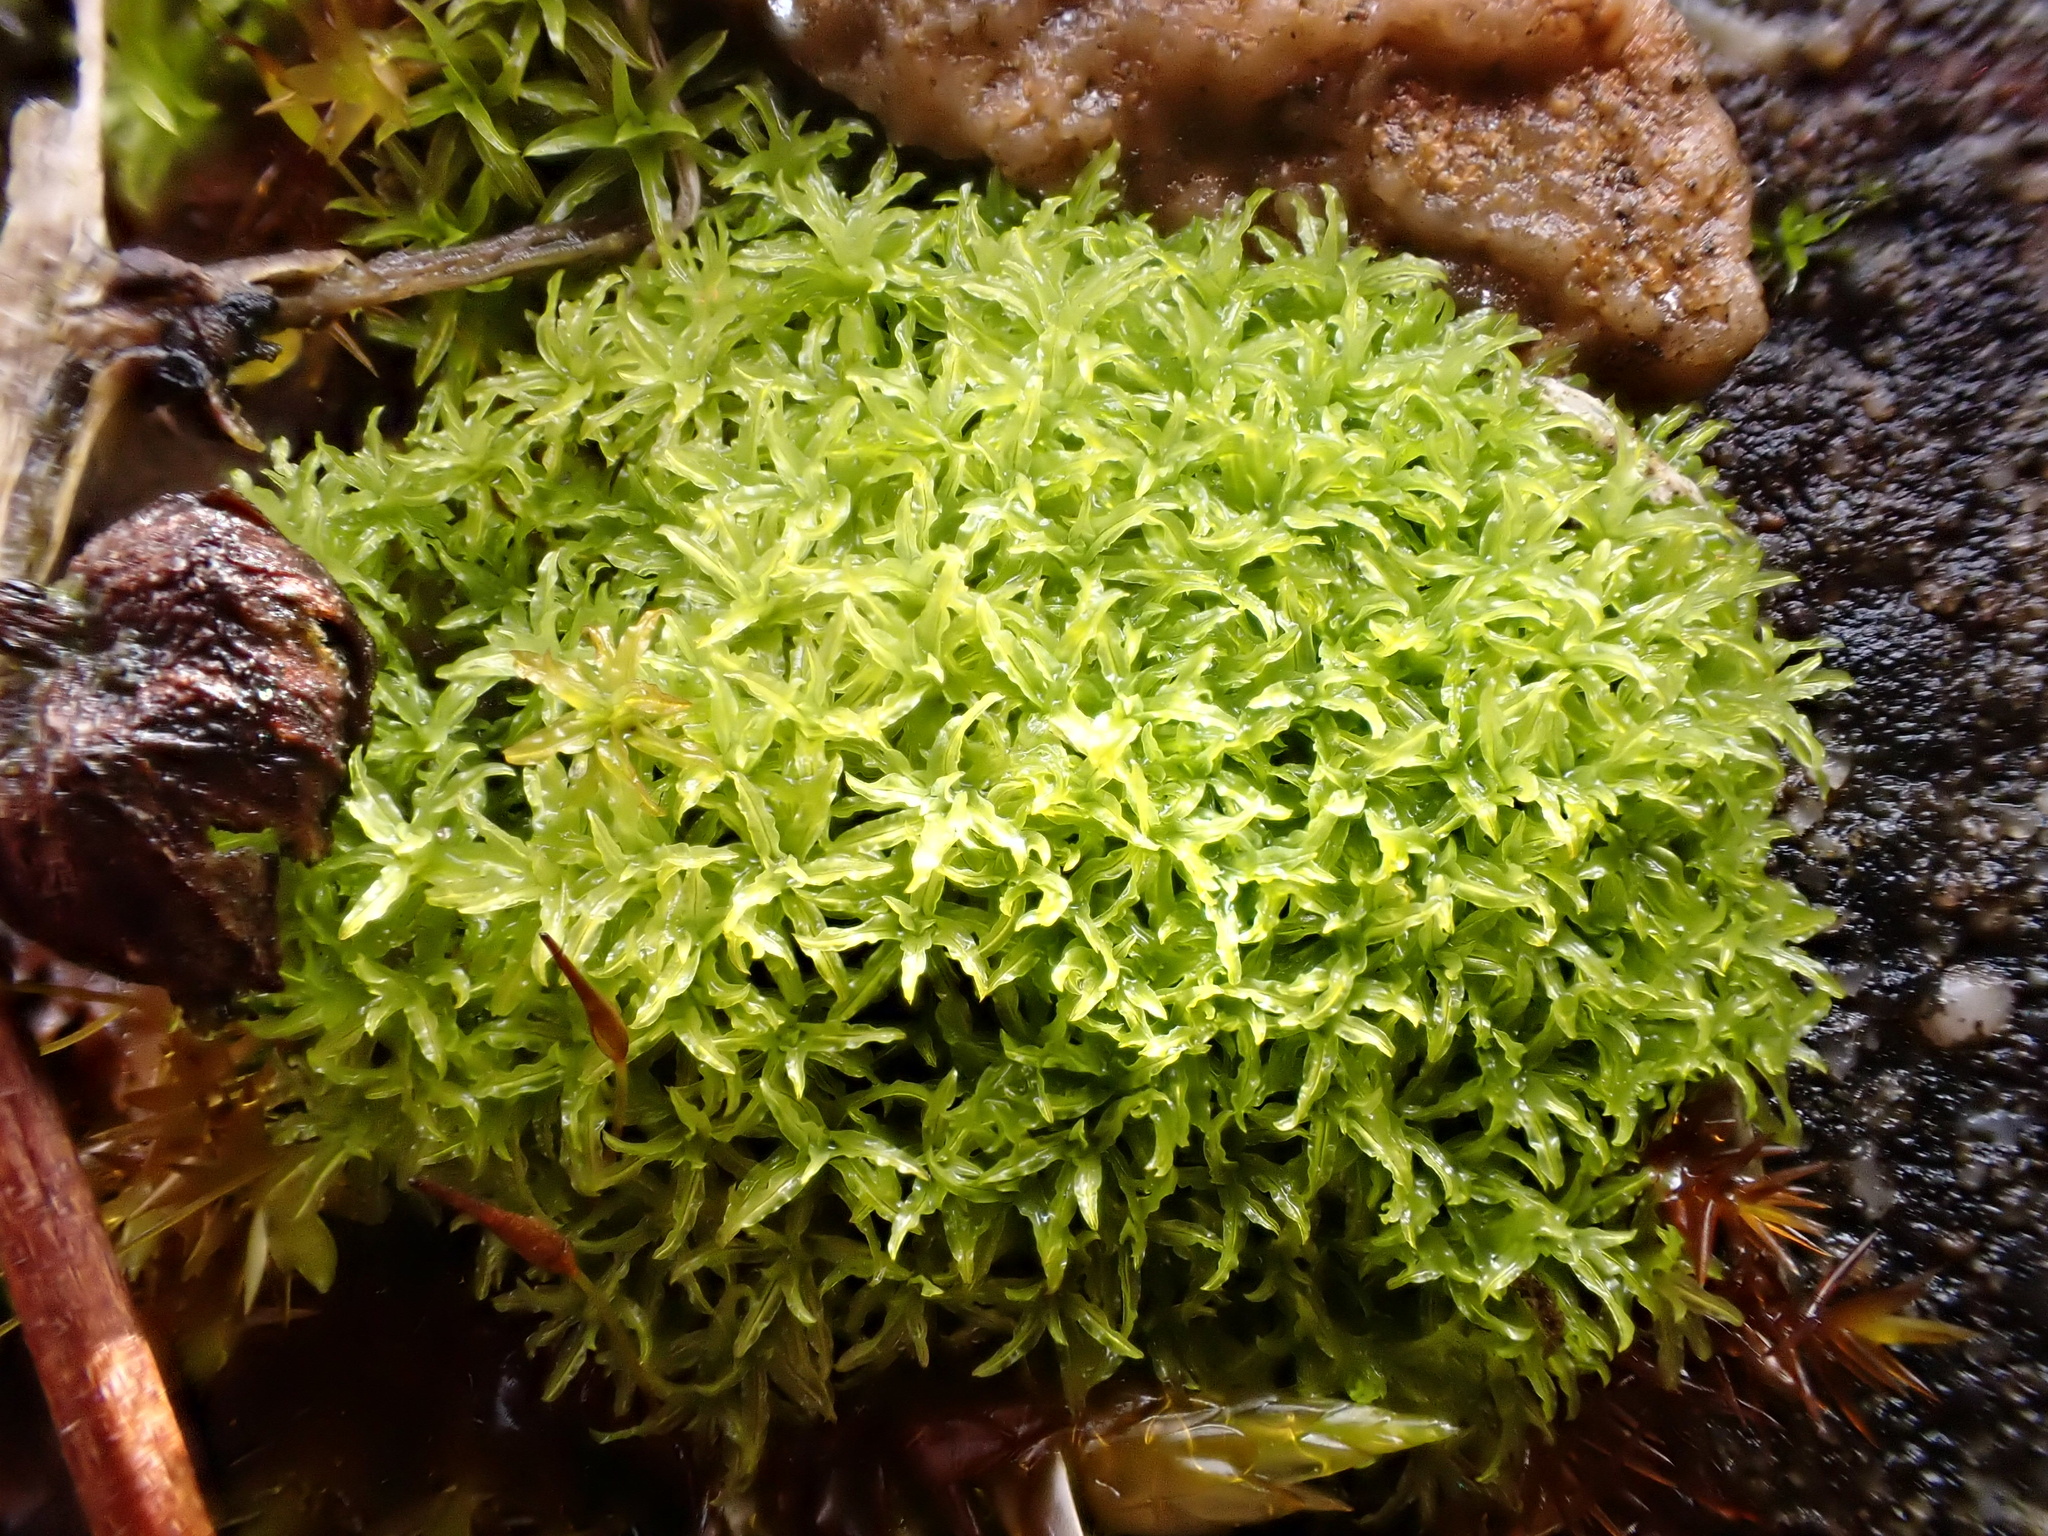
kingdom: Plantae
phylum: Bryophyta
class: Bryopsida
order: Pottiales
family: Pottiaceae
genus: Streblotrichum
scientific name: Streblotrichum commutatum
